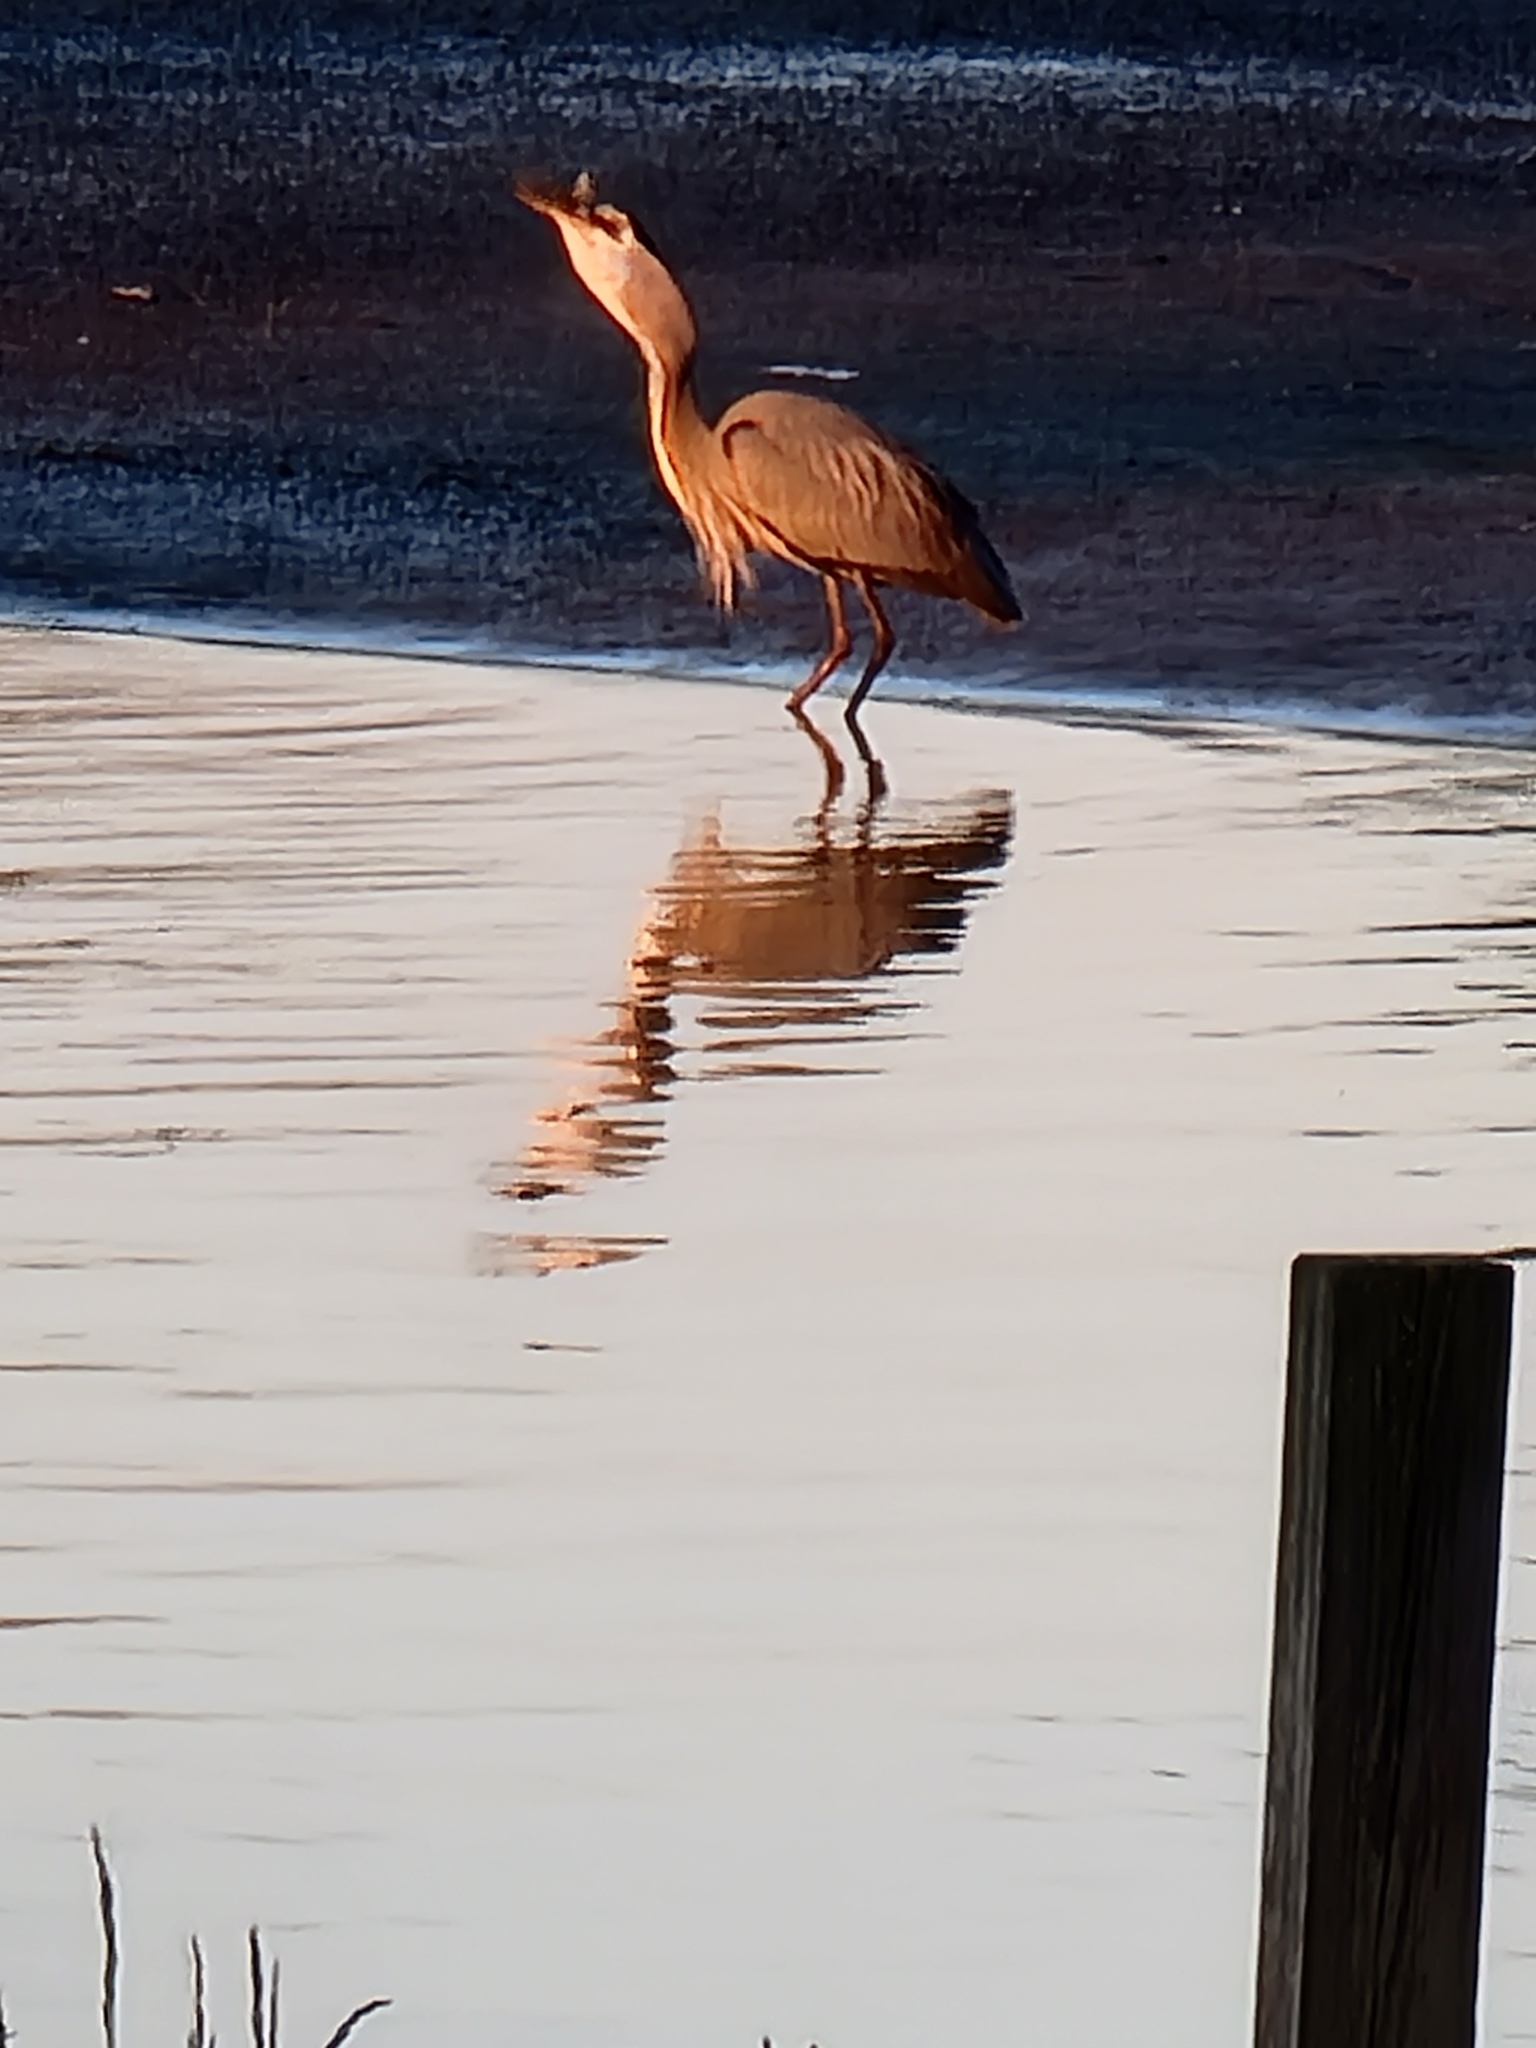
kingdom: Animalia
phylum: Chordata
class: Aves
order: Pelecaniformes
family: Ardeidae
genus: Ardea
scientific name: Ardea herodias
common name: Great blue heron
